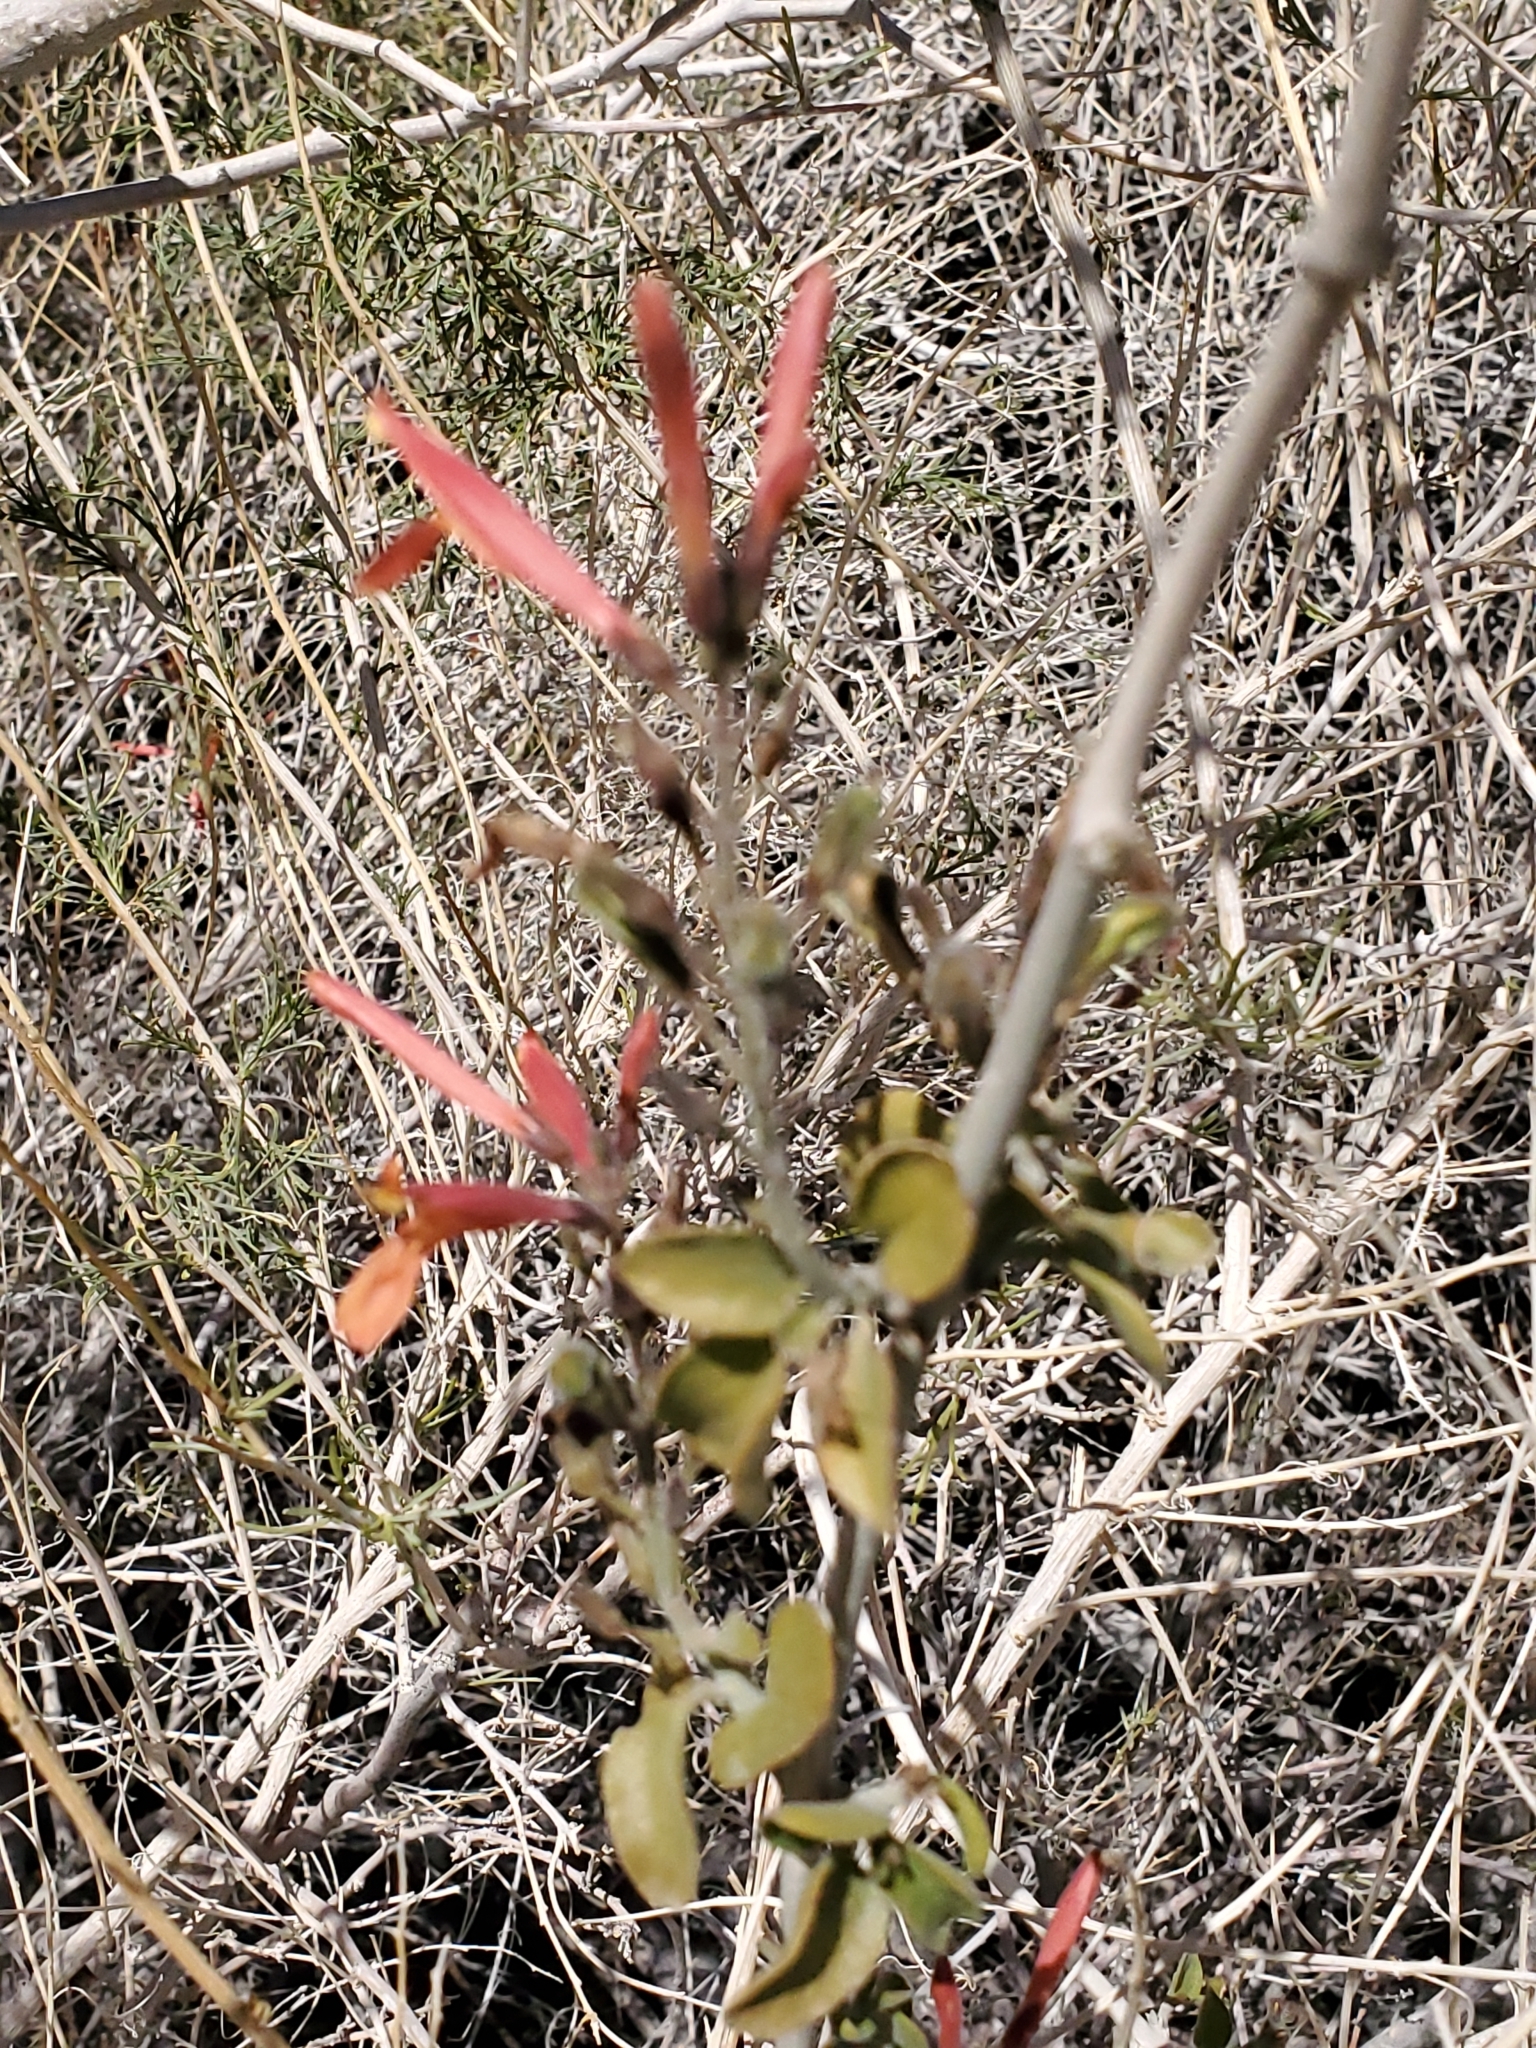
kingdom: Plantae
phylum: Tracheophyta
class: Magnoliopsida
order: Lamiales
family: Acanthaceae
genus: Justicia
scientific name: Justicia californica
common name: Chuparosa-honeysuckle
